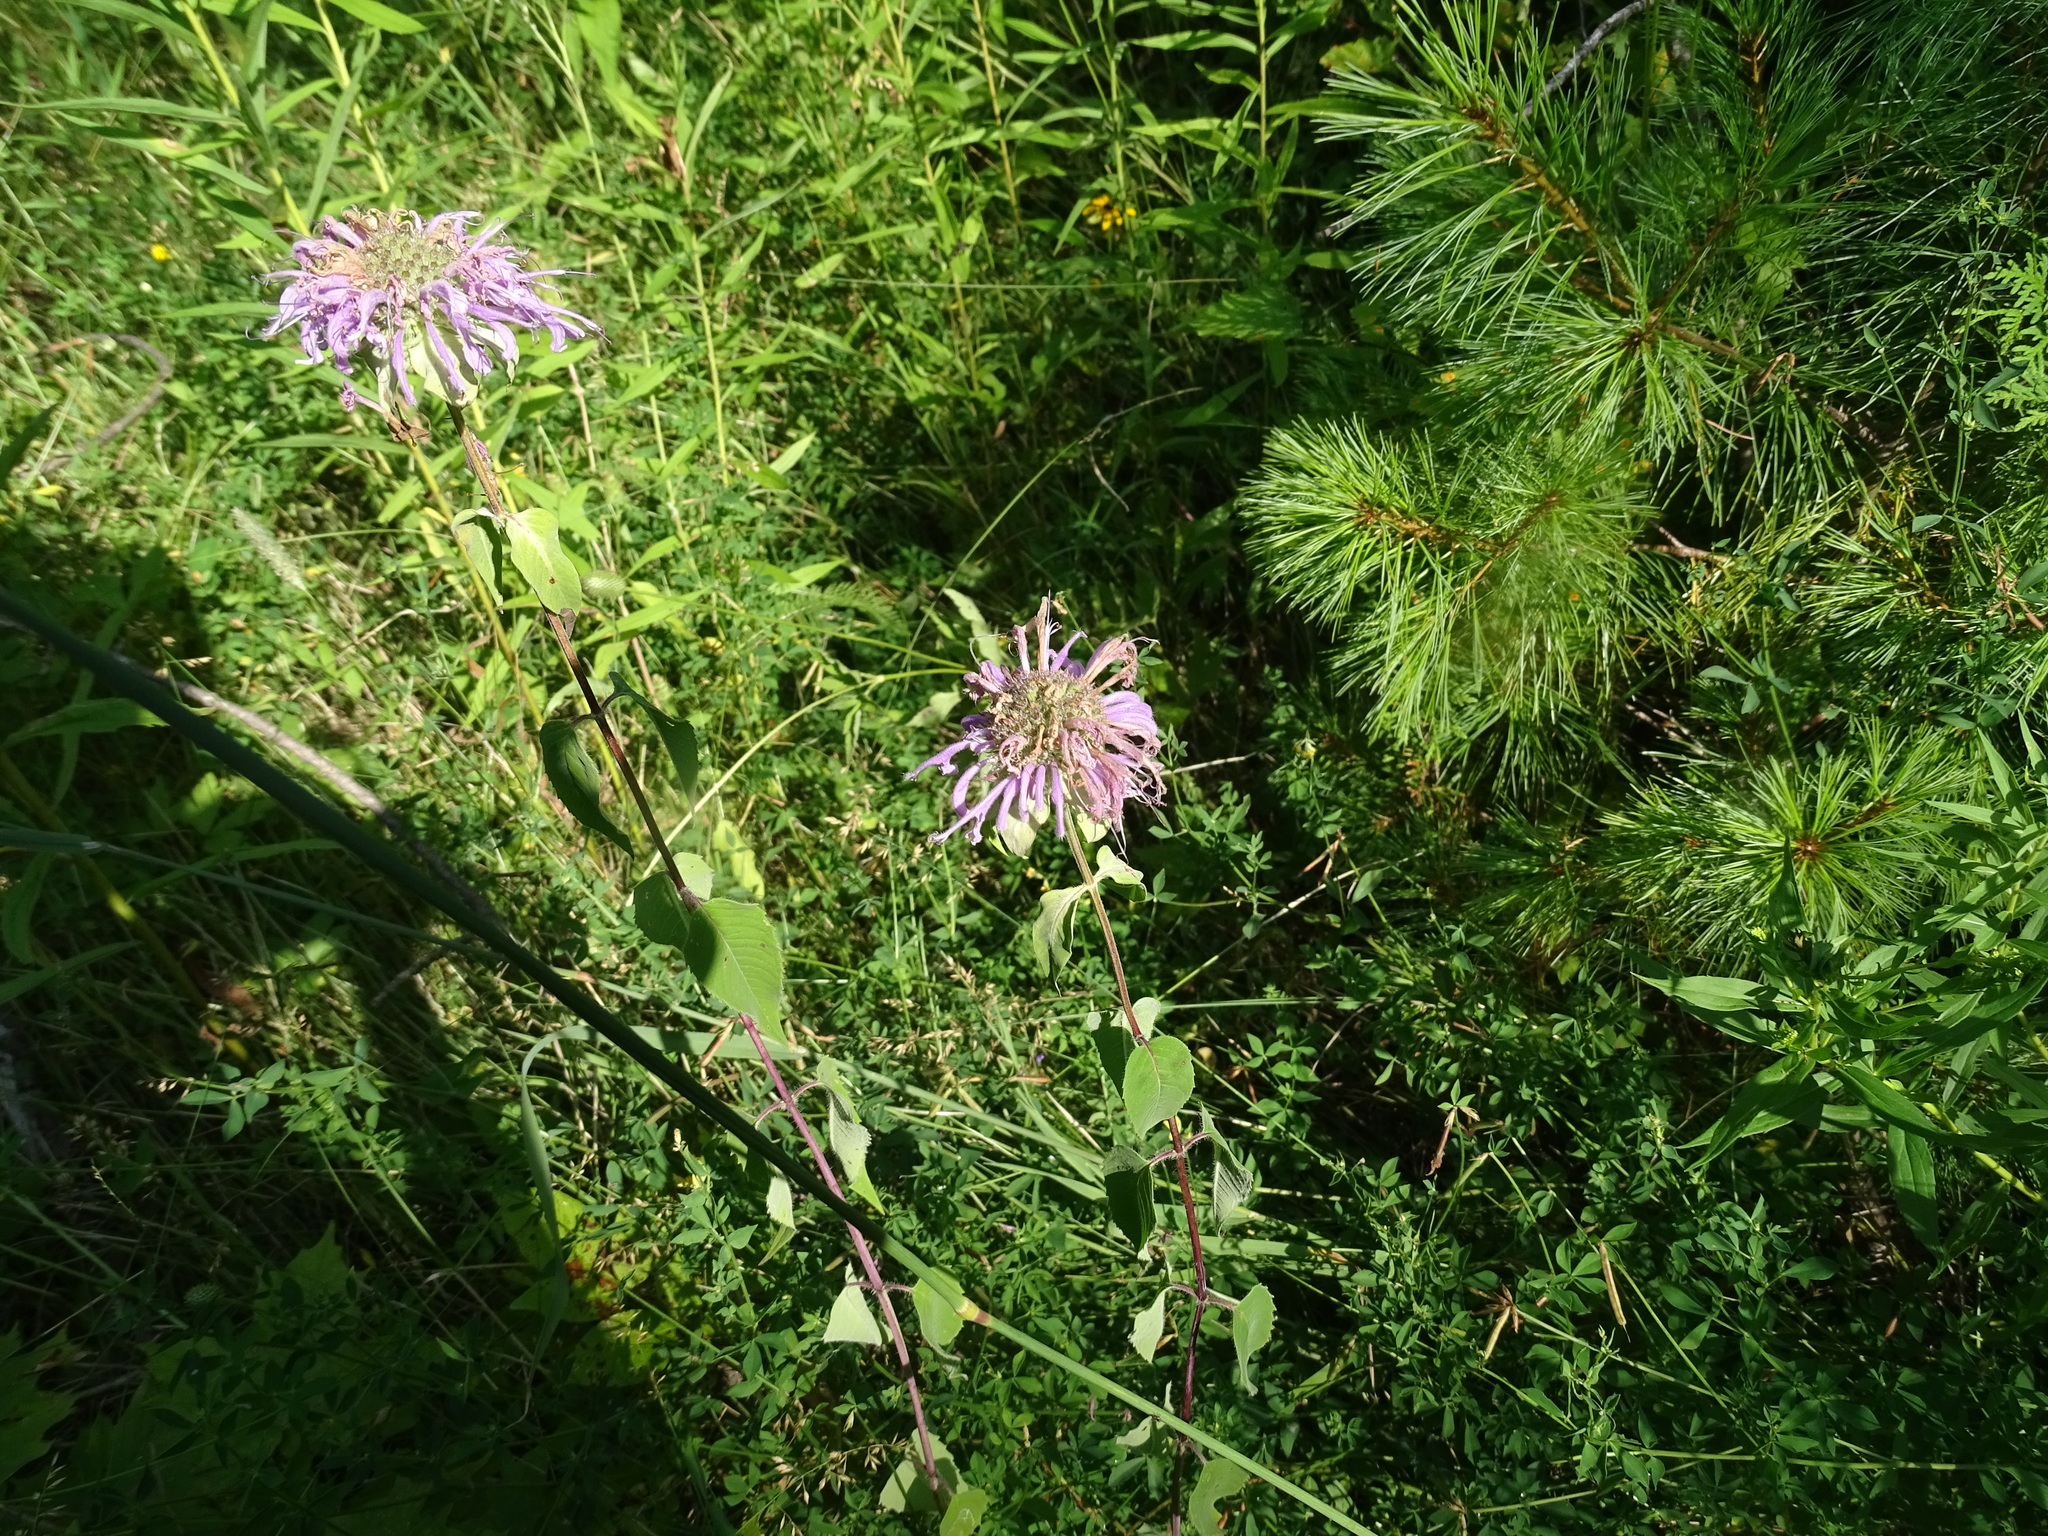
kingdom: Plantae
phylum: Tracheophyta
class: Magnoliopsida
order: Lamiales
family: Lamiaceae
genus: Monarda
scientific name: Monarda fistulosa
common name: Purple beebalm
